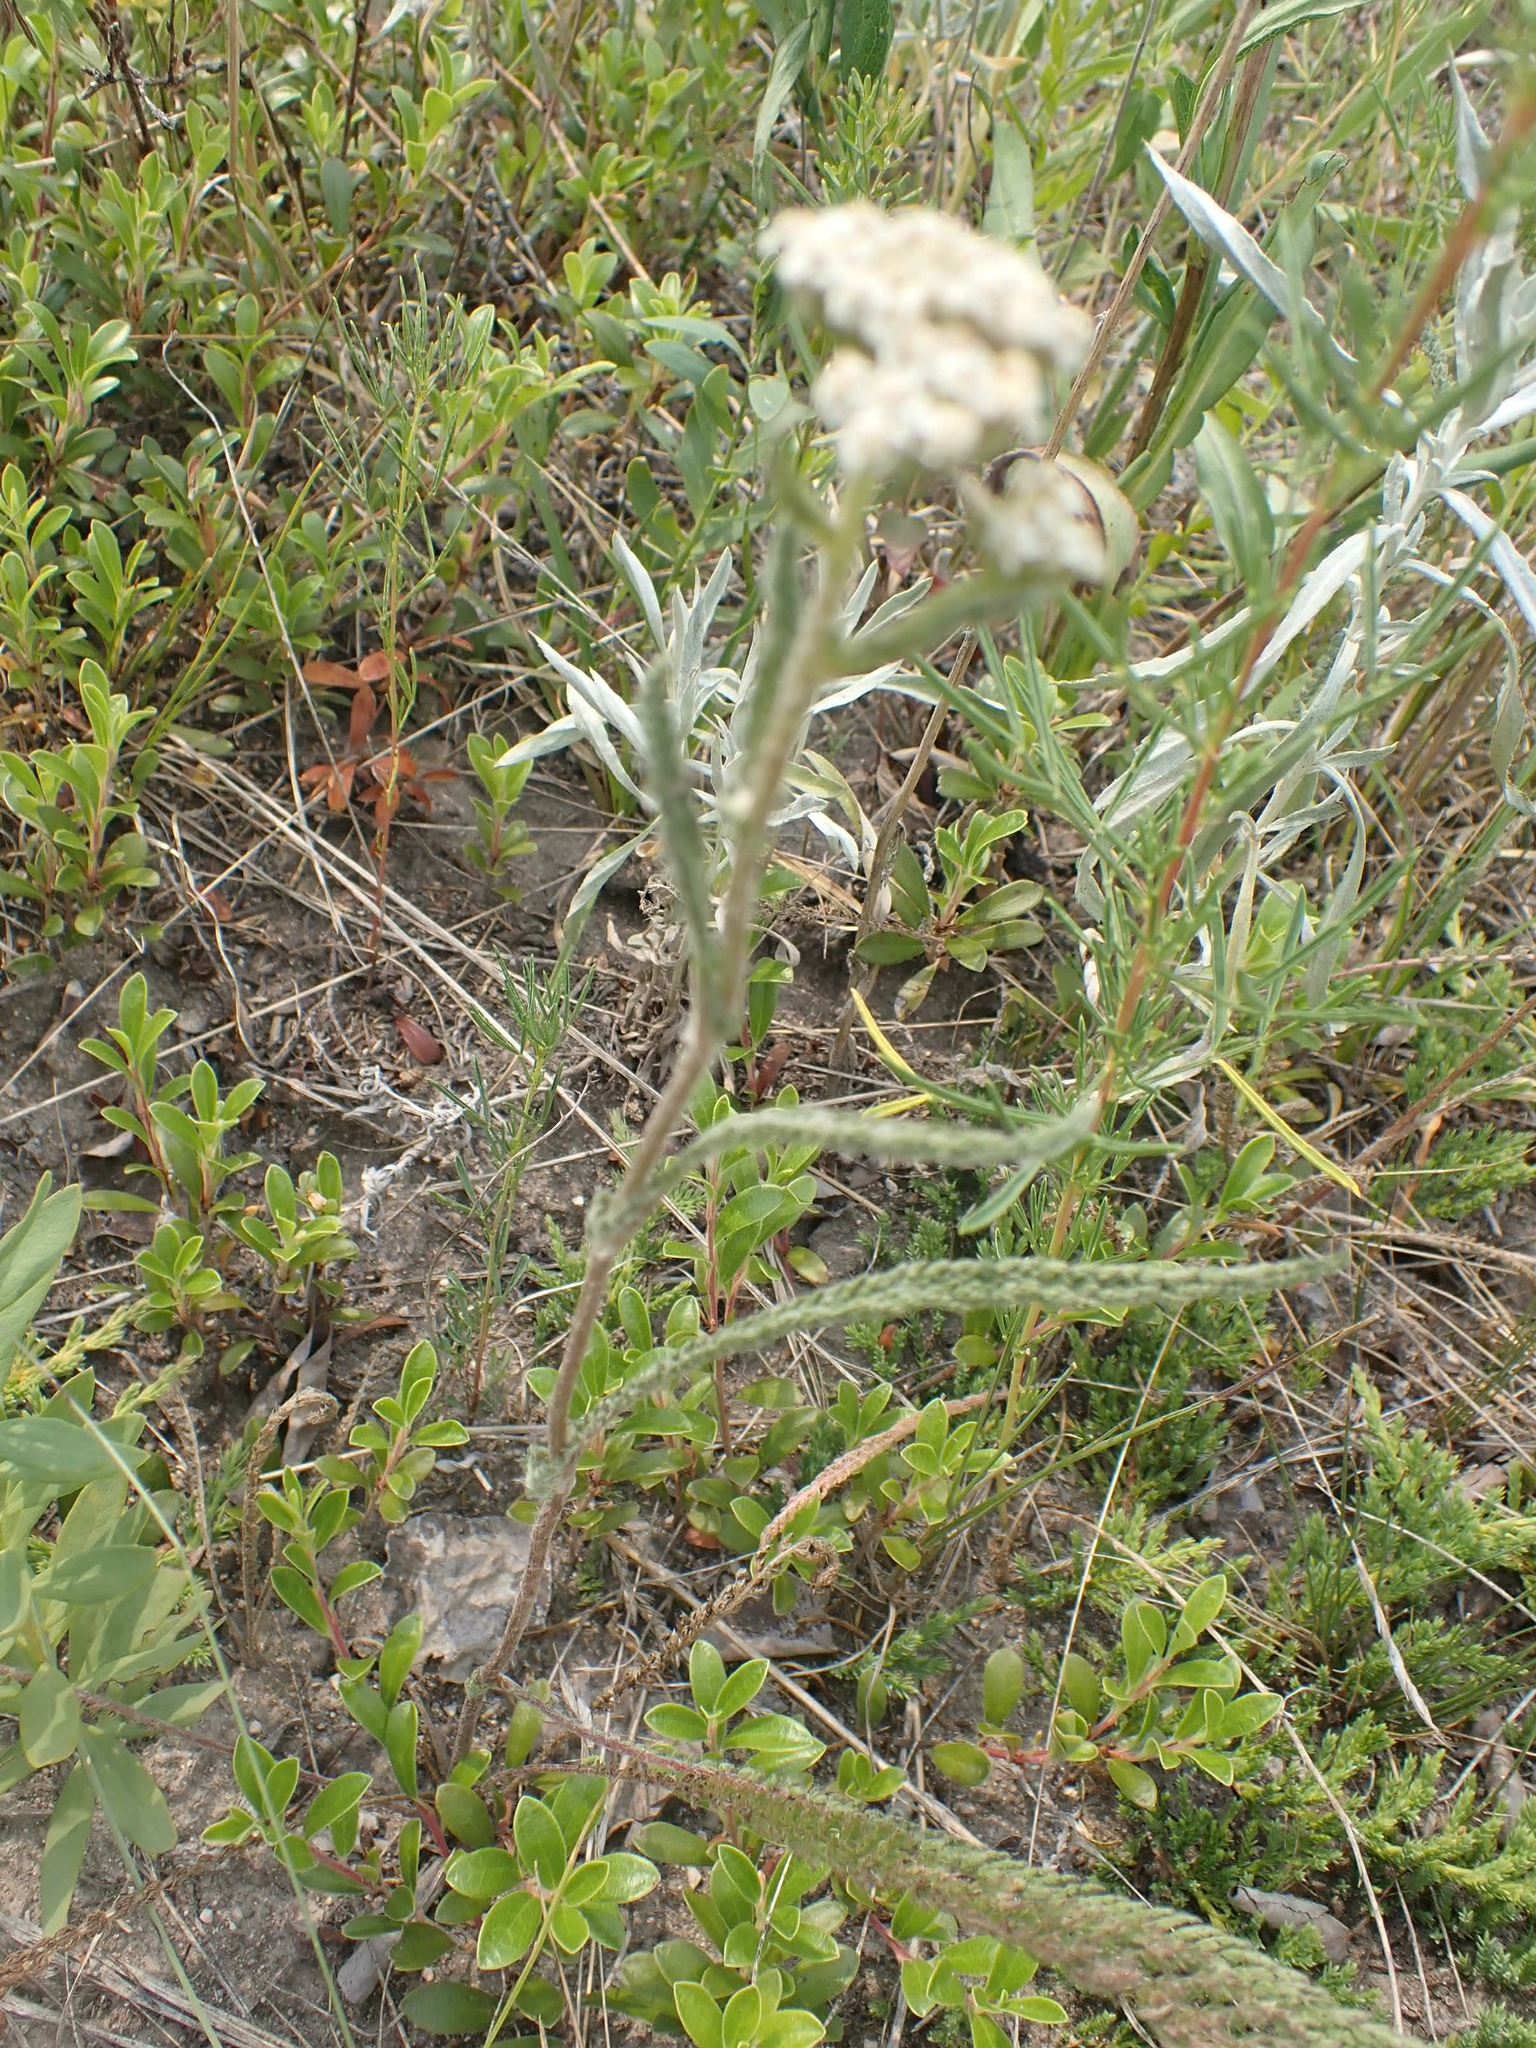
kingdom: Plantae
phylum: Tracheophyta
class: Magnoliopsida
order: Asterales
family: Asteraceae
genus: Achillea
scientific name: Achillea millefolium
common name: Yarrow
